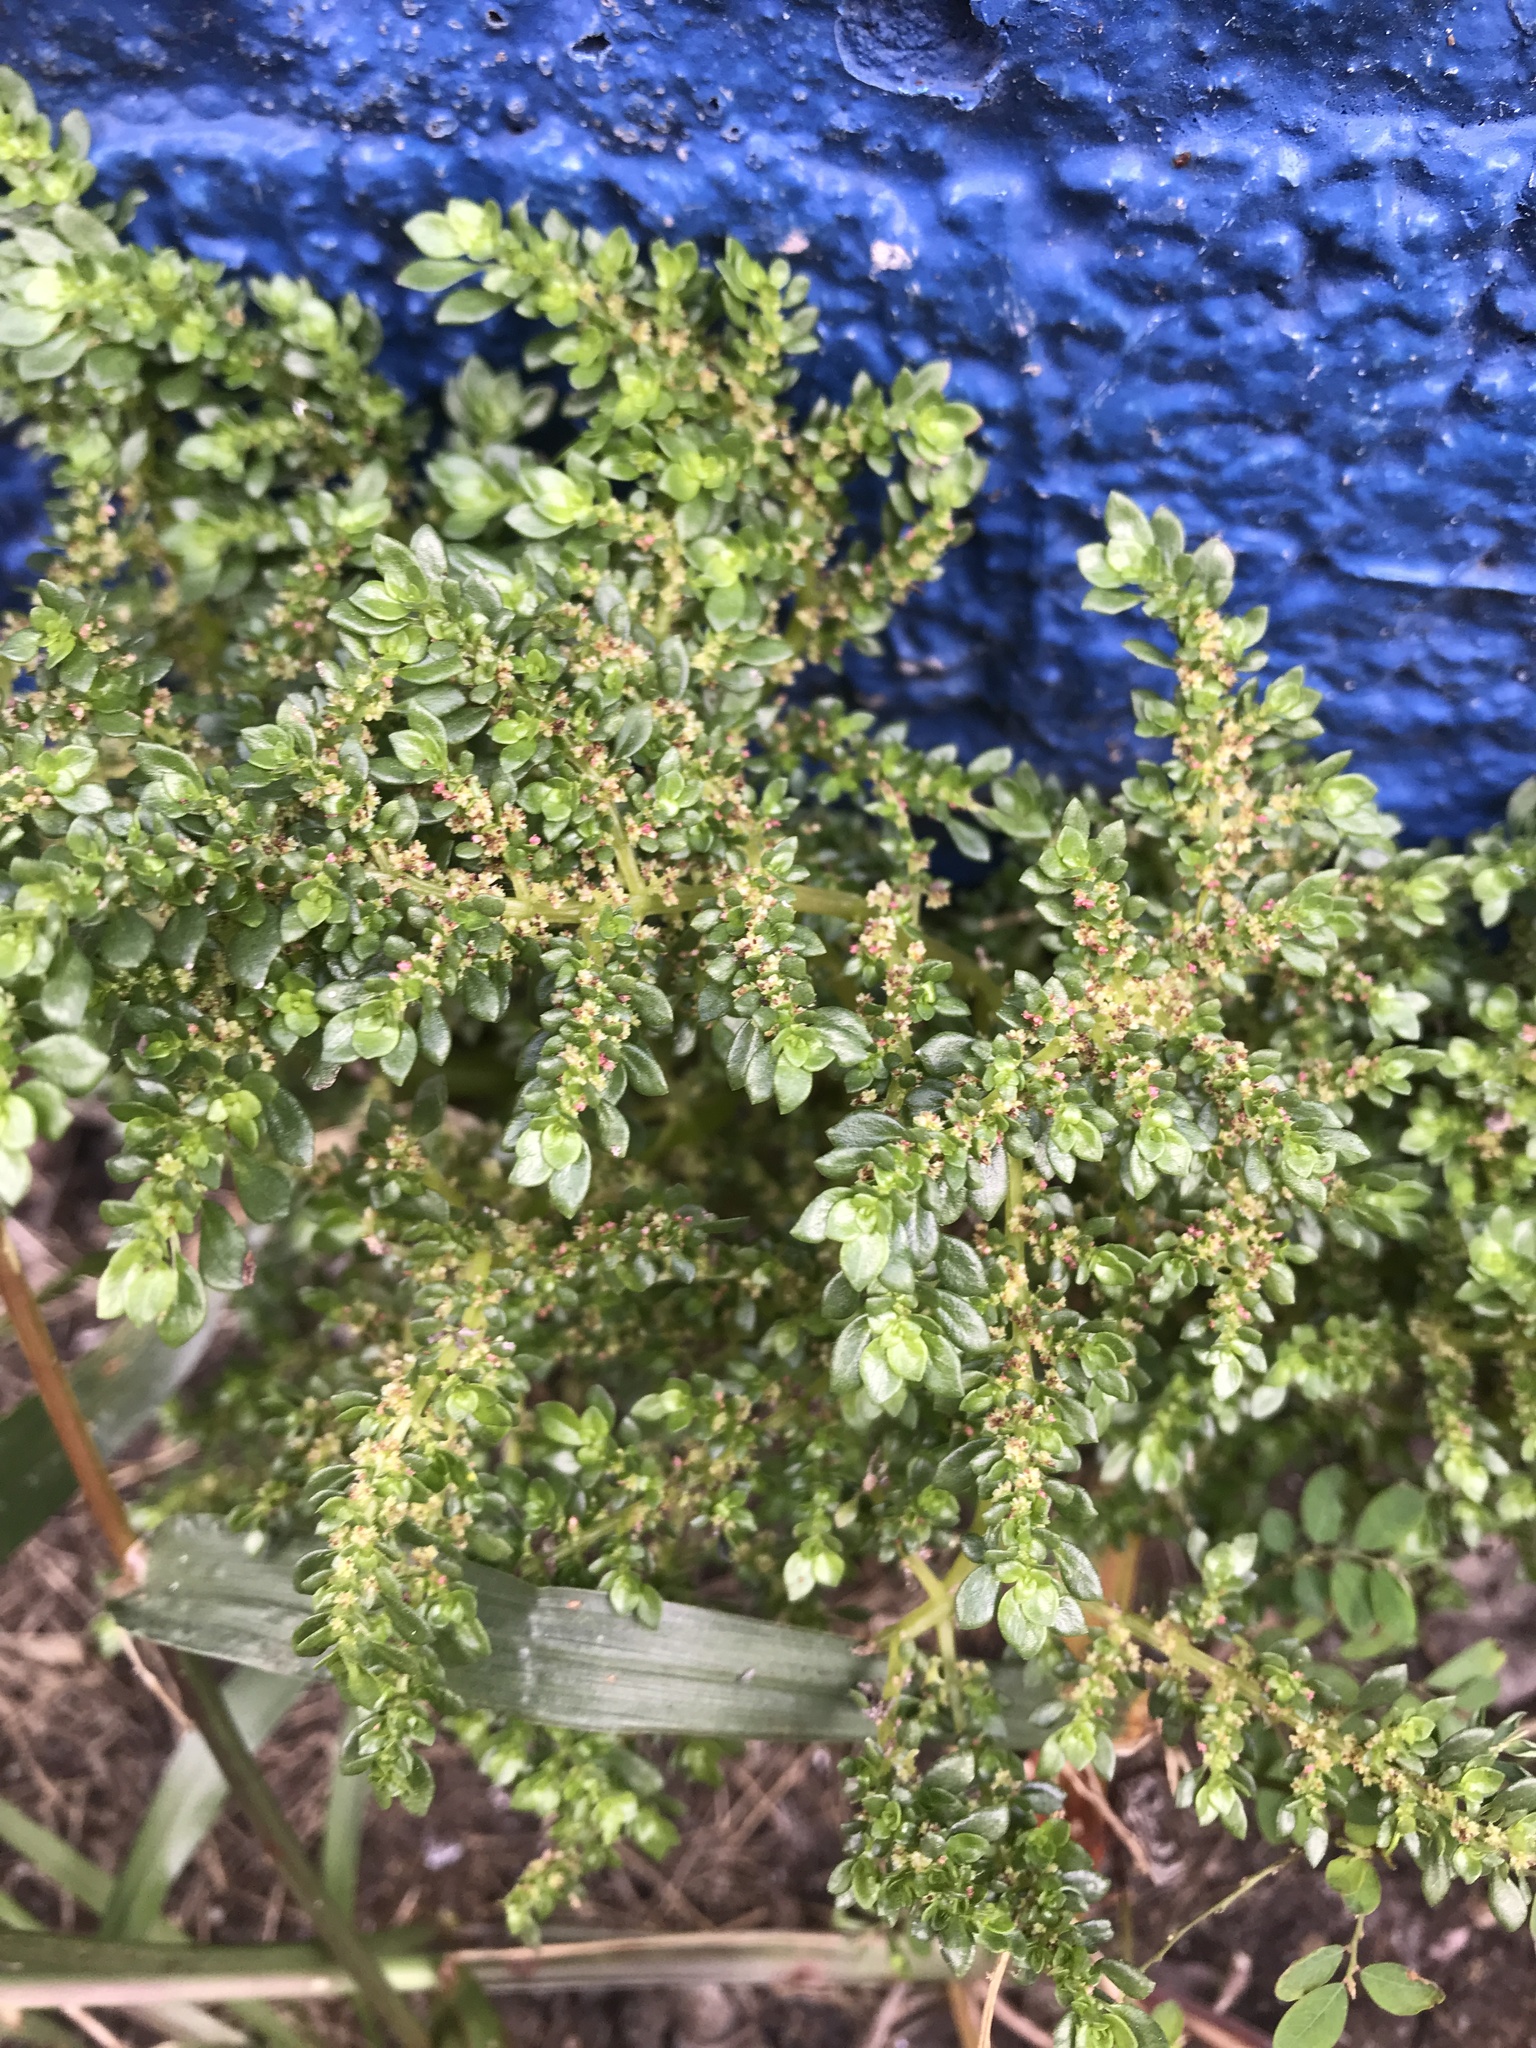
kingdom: Plantae
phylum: Tracheophyta
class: Magnoliopsida
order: Rosales
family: Urticaceae
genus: Pilea
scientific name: Pilea microphylla
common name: Artillery-plant
